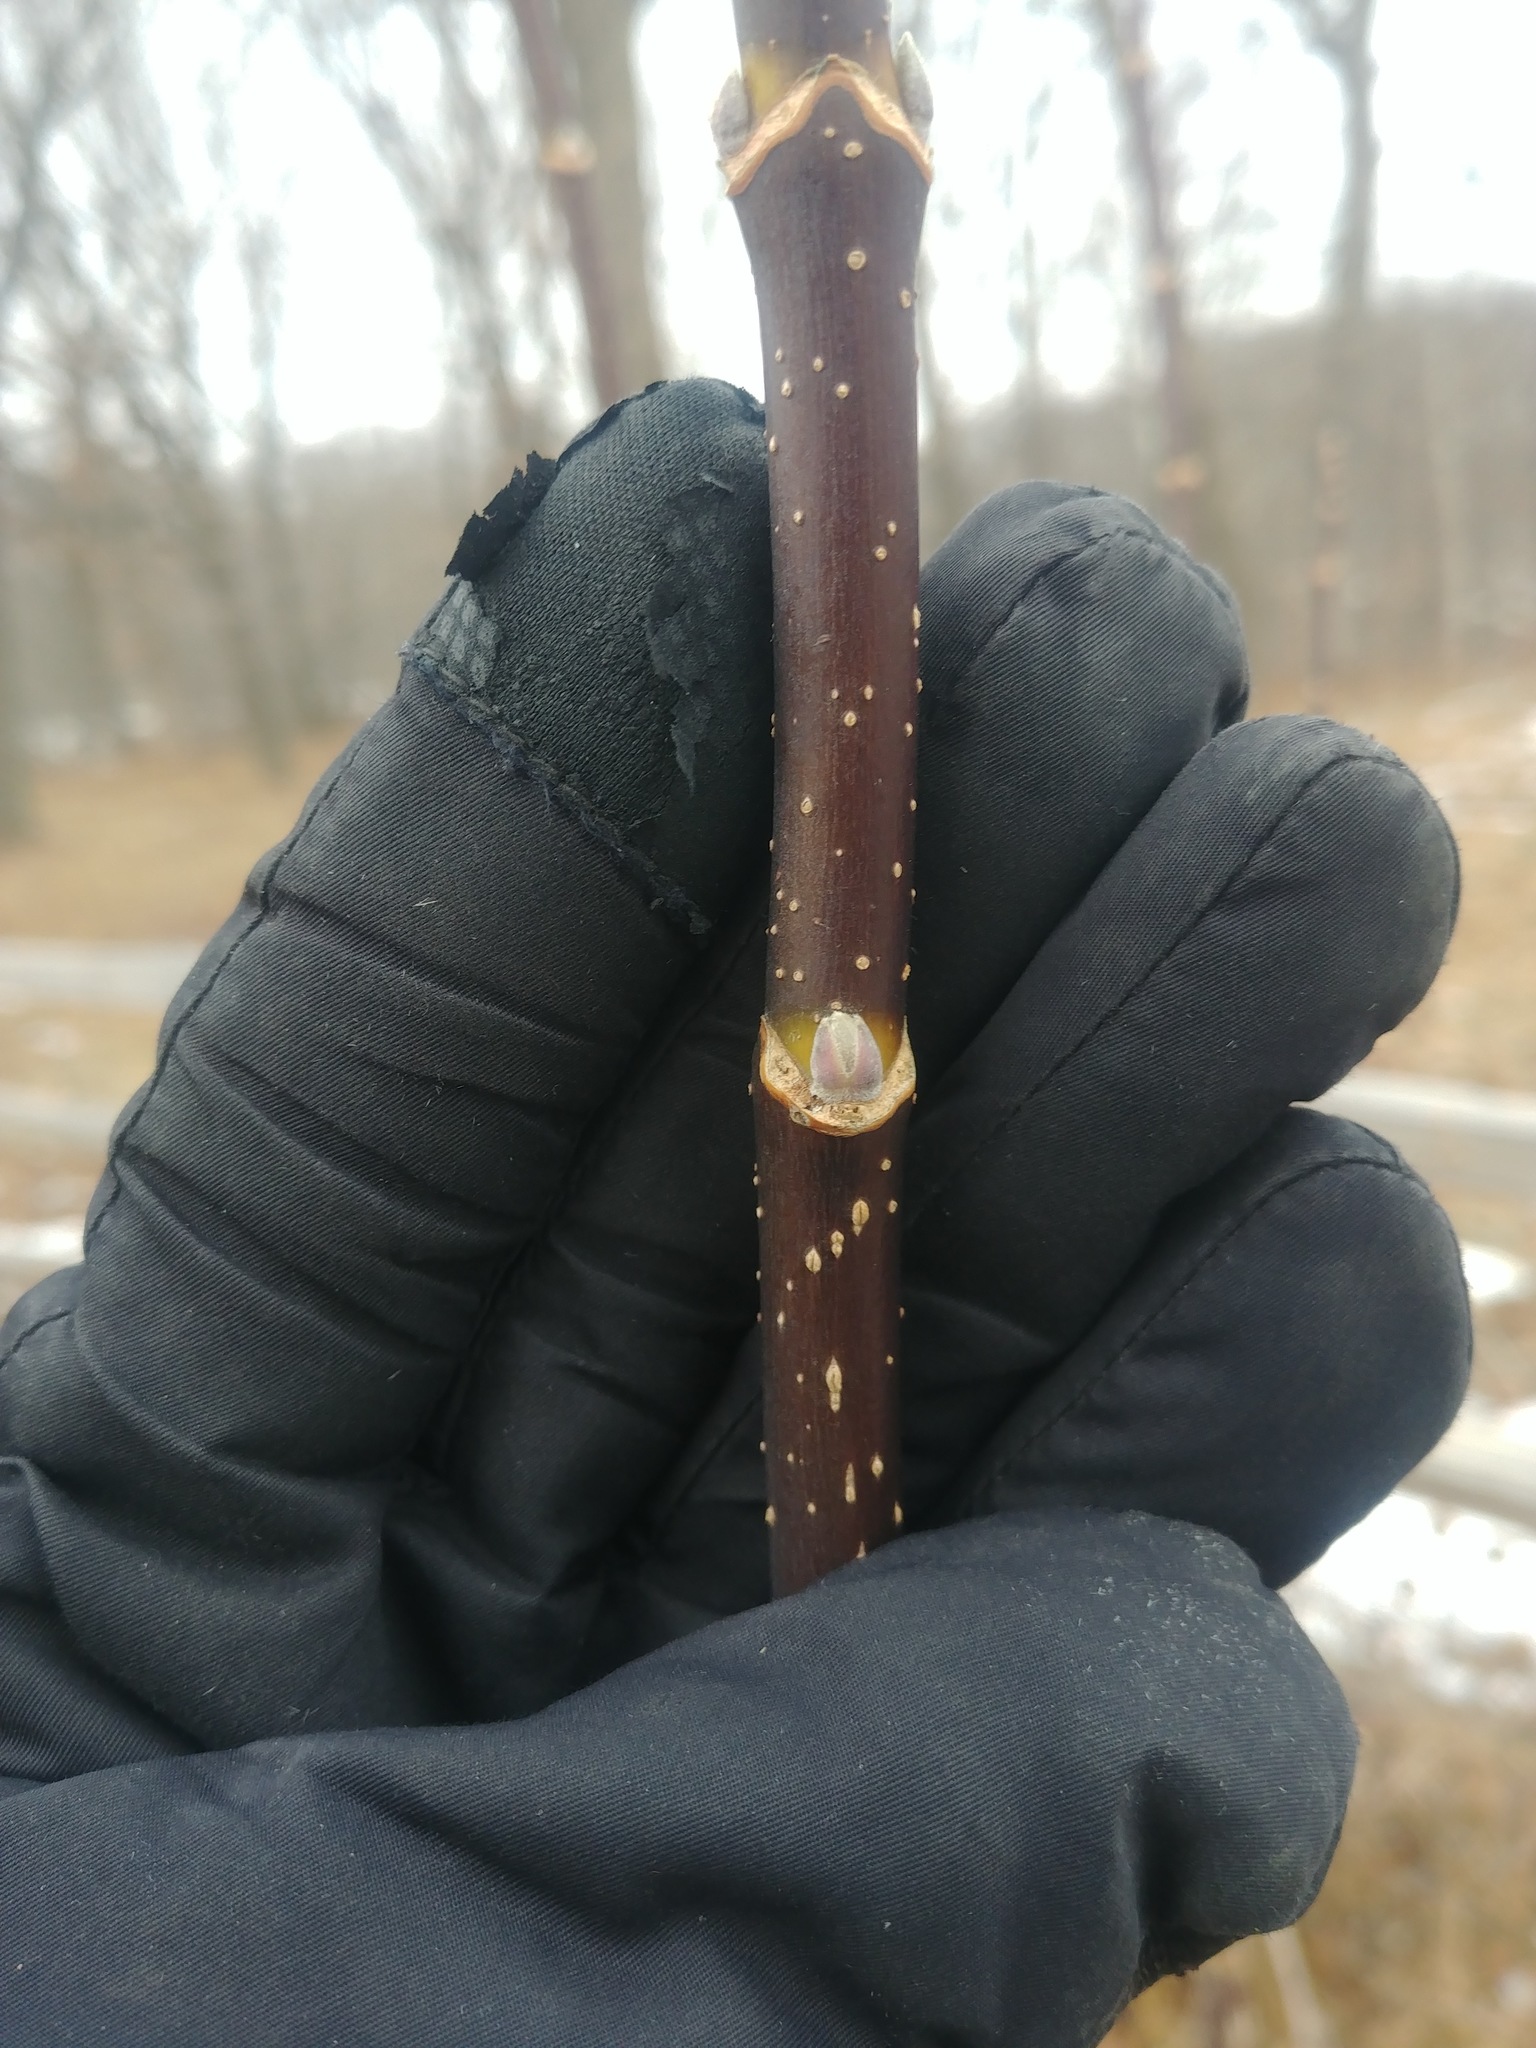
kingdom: Plantae
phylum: Tracheophyta
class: Magnoliopsida
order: Sapindales
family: Sapindaceae
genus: Acer
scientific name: Acer negundo
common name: Ashleaf maple
